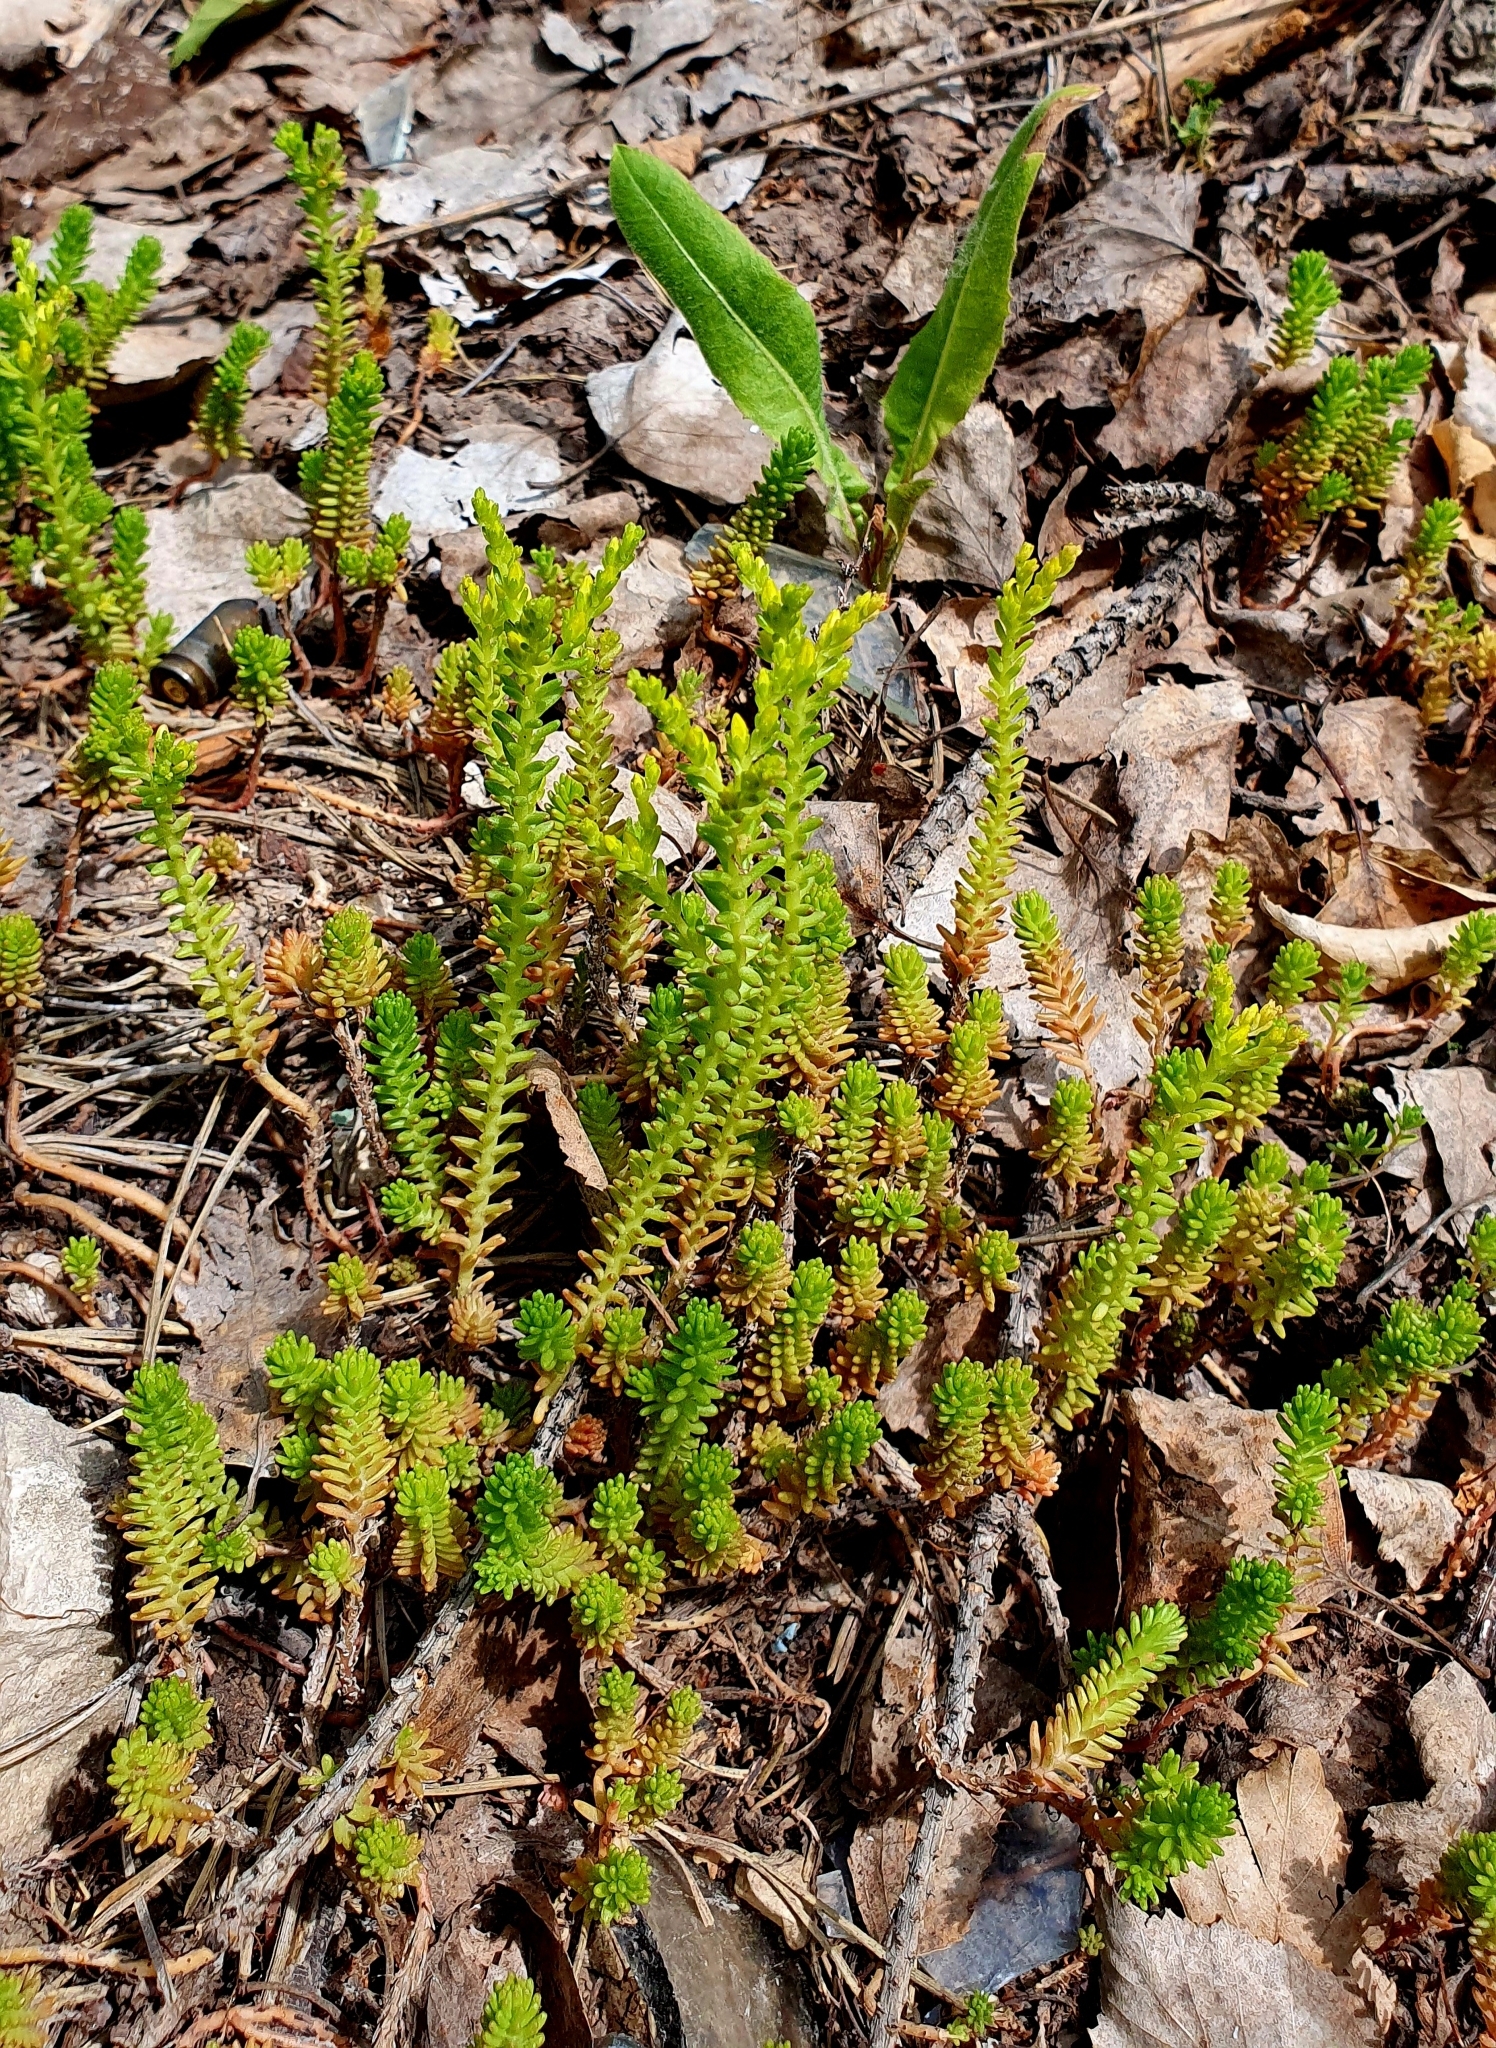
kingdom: Plantae
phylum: Tracheophyta
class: Magnoliopsida
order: Saxifragales
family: Crassulaceae
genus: Sedum
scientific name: Sedum sexangulare
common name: Tasteless stonecrop
